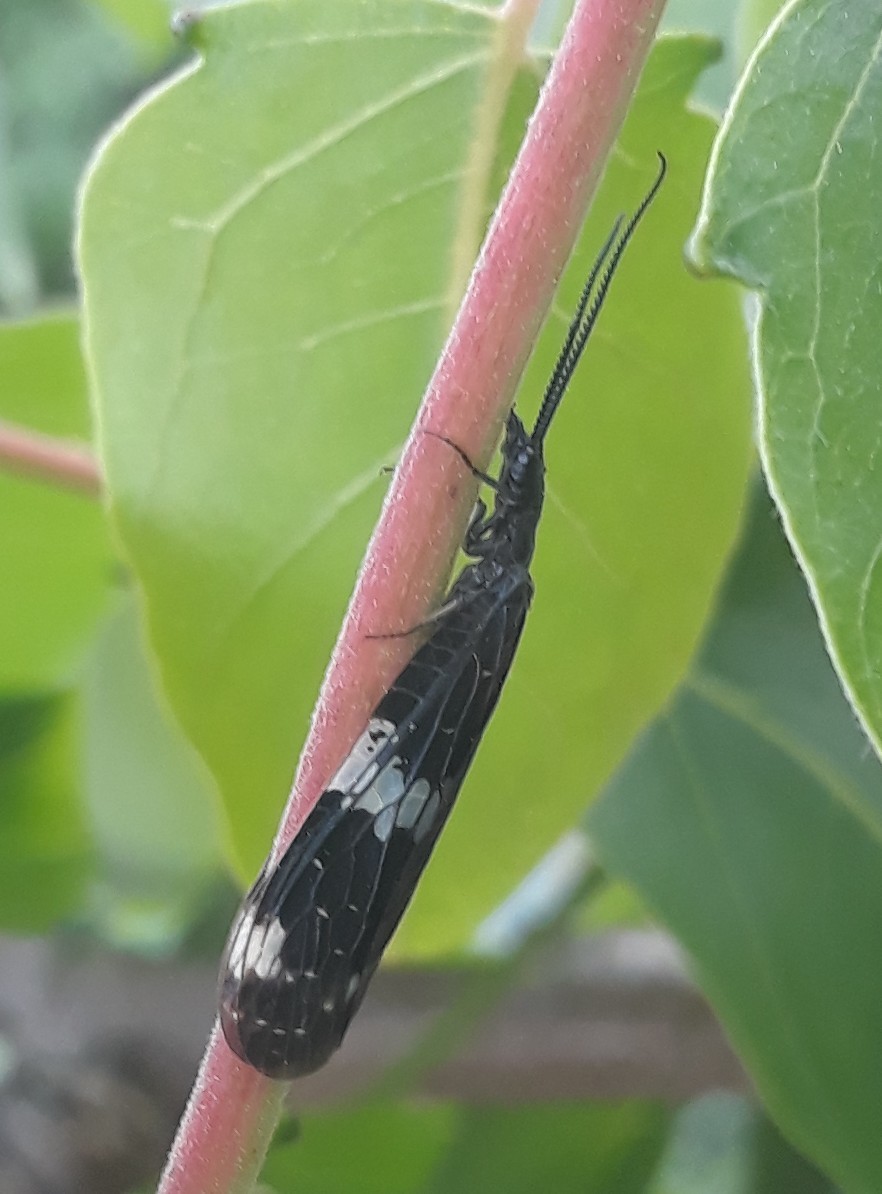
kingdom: Animalia
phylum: Arthropoda
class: Insecta
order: Megaloptera
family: Corydalidae
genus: Nigronia
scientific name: Nigronia serricornis
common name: Serrate dark fishfly
